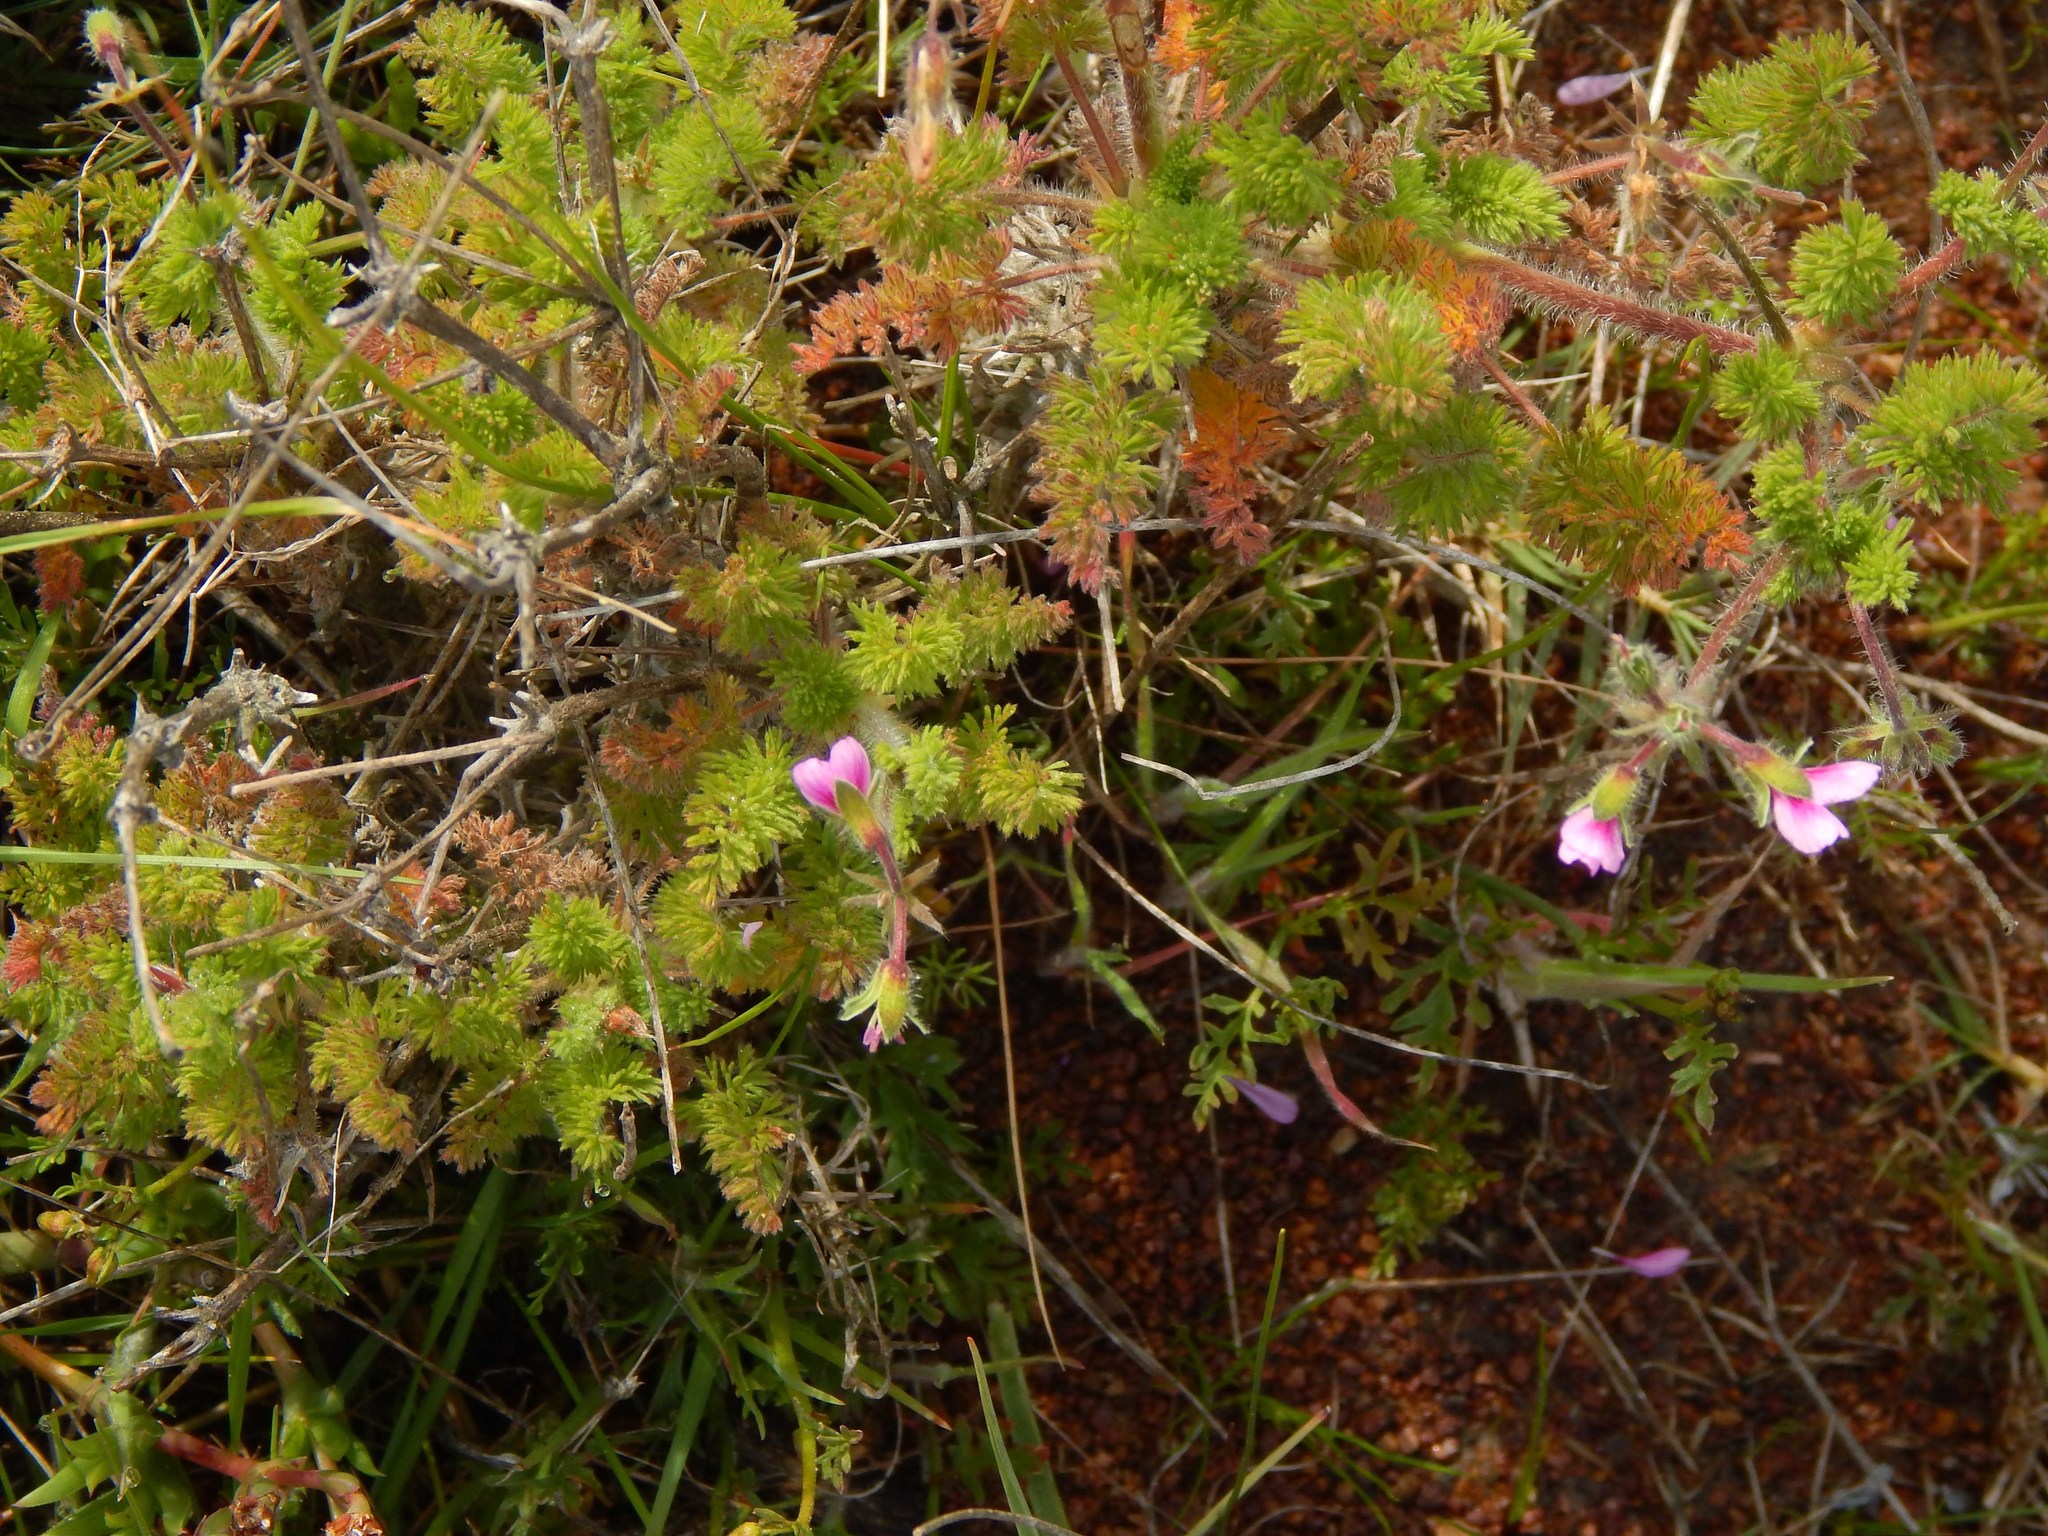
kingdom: Plantae
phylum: Tracheophyta
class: Magnoliopsida
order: Geraniales
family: Geraniaceae
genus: Pelargonium
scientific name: Pelargonium hirtum
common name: Fine-leaf pelargonium
